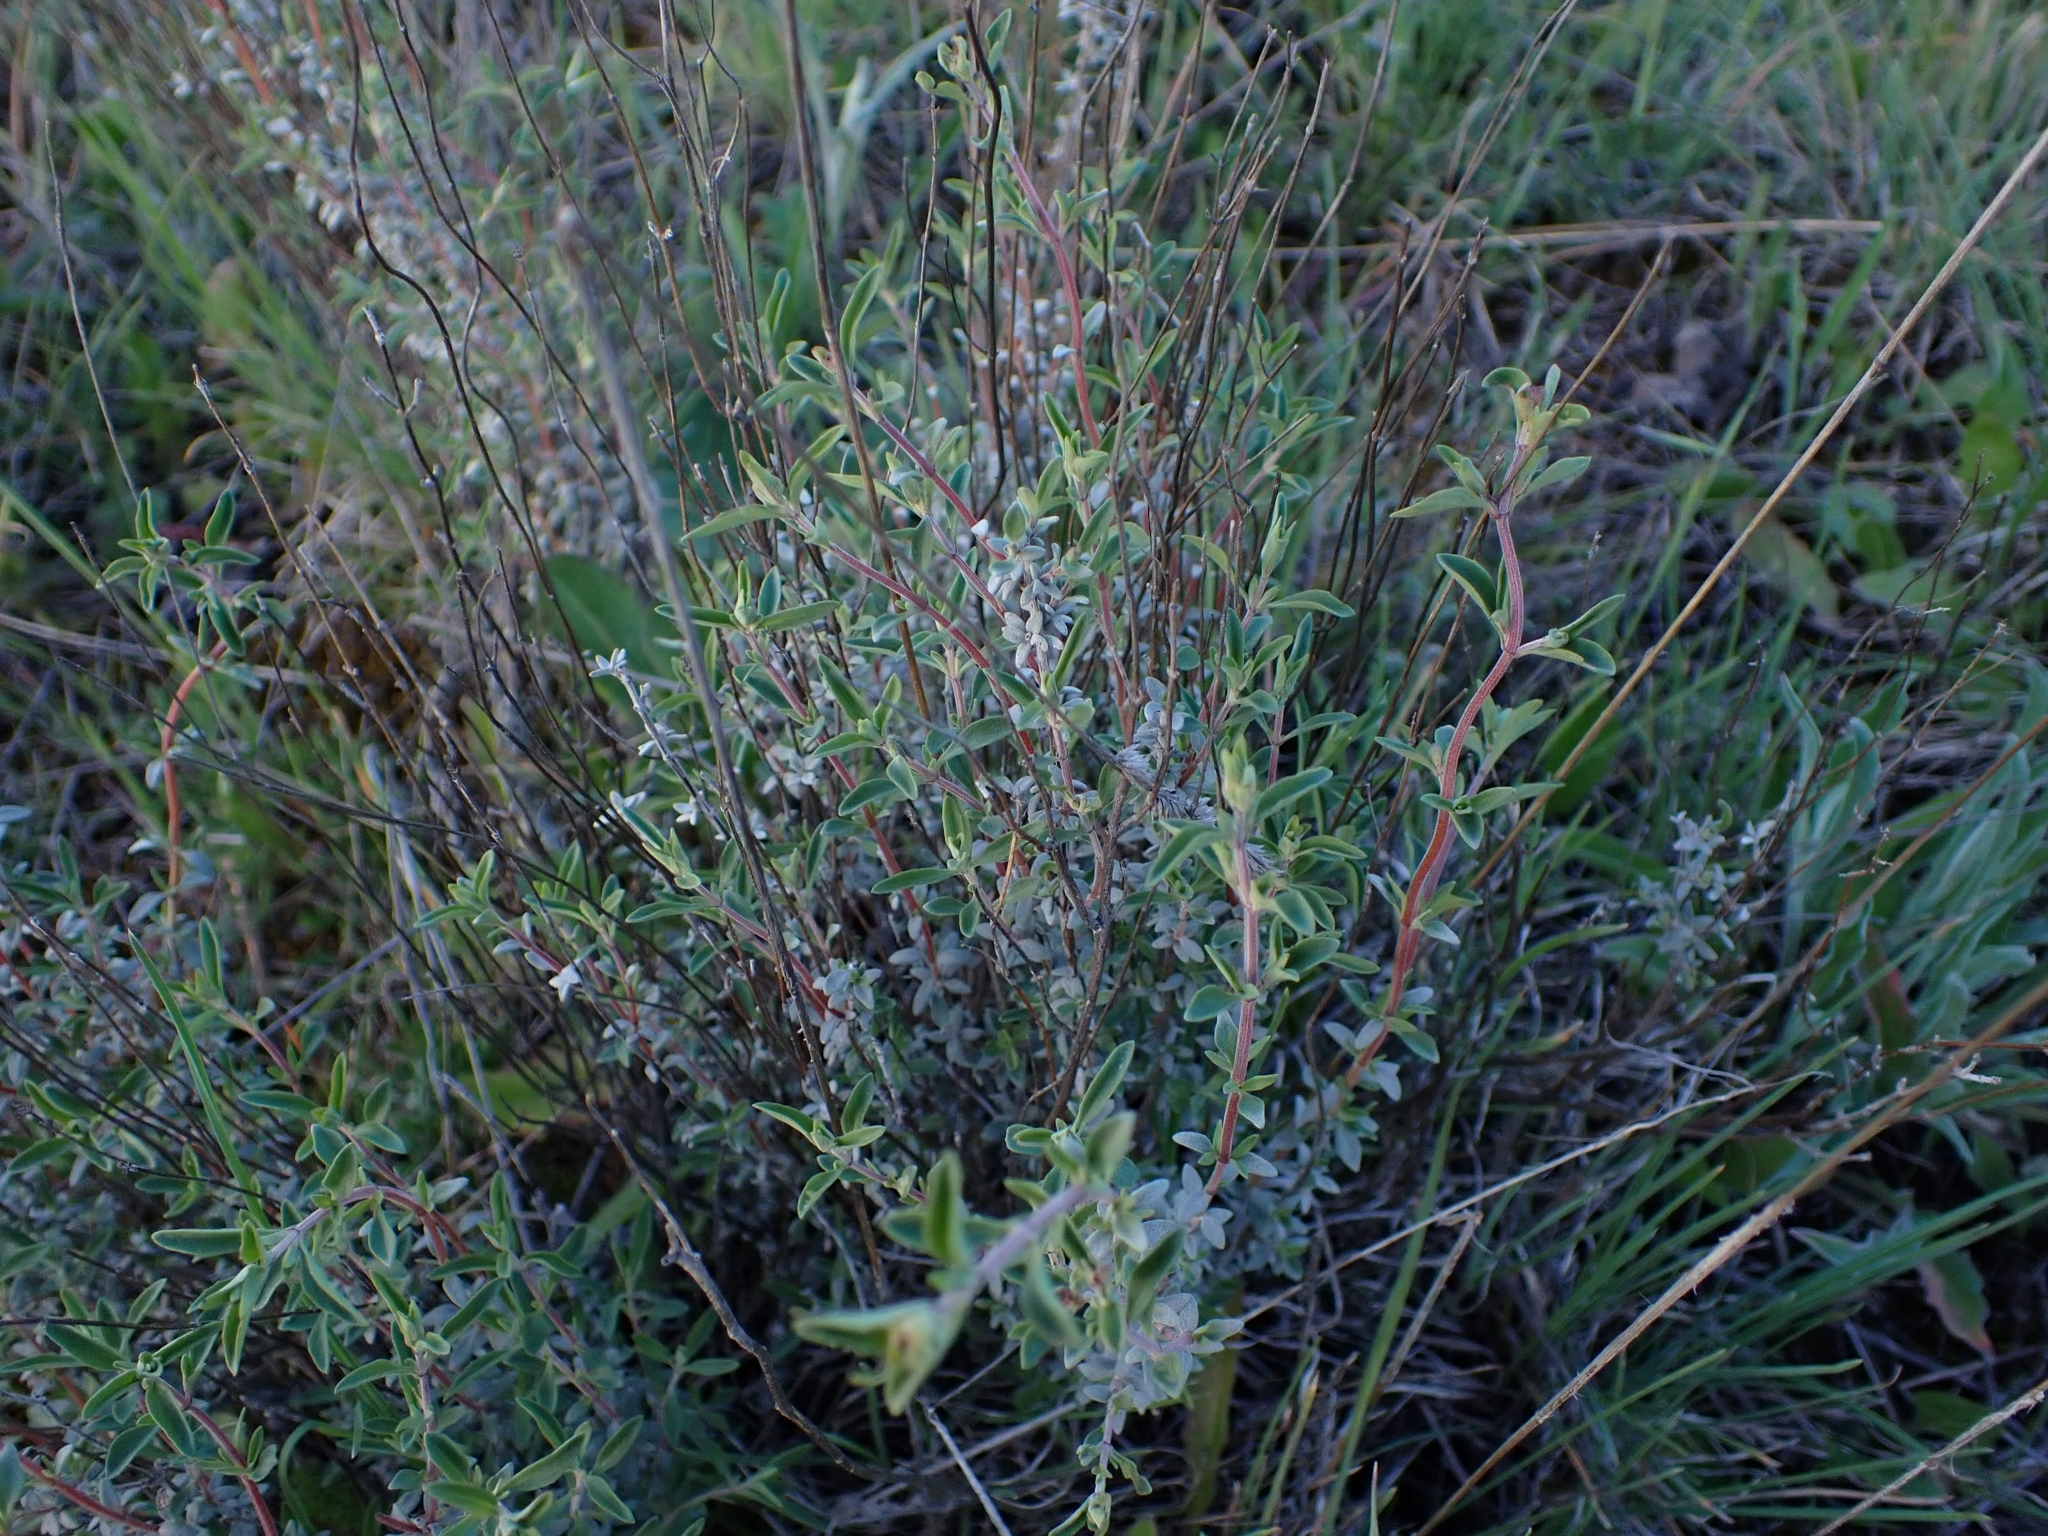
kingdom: Plantae
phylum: Tracheophyta
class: Magnoliopsida
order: Lamiales
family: Lamiaceae
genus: Thymus
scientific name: Thymus mastichina
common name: Mastic thyme
